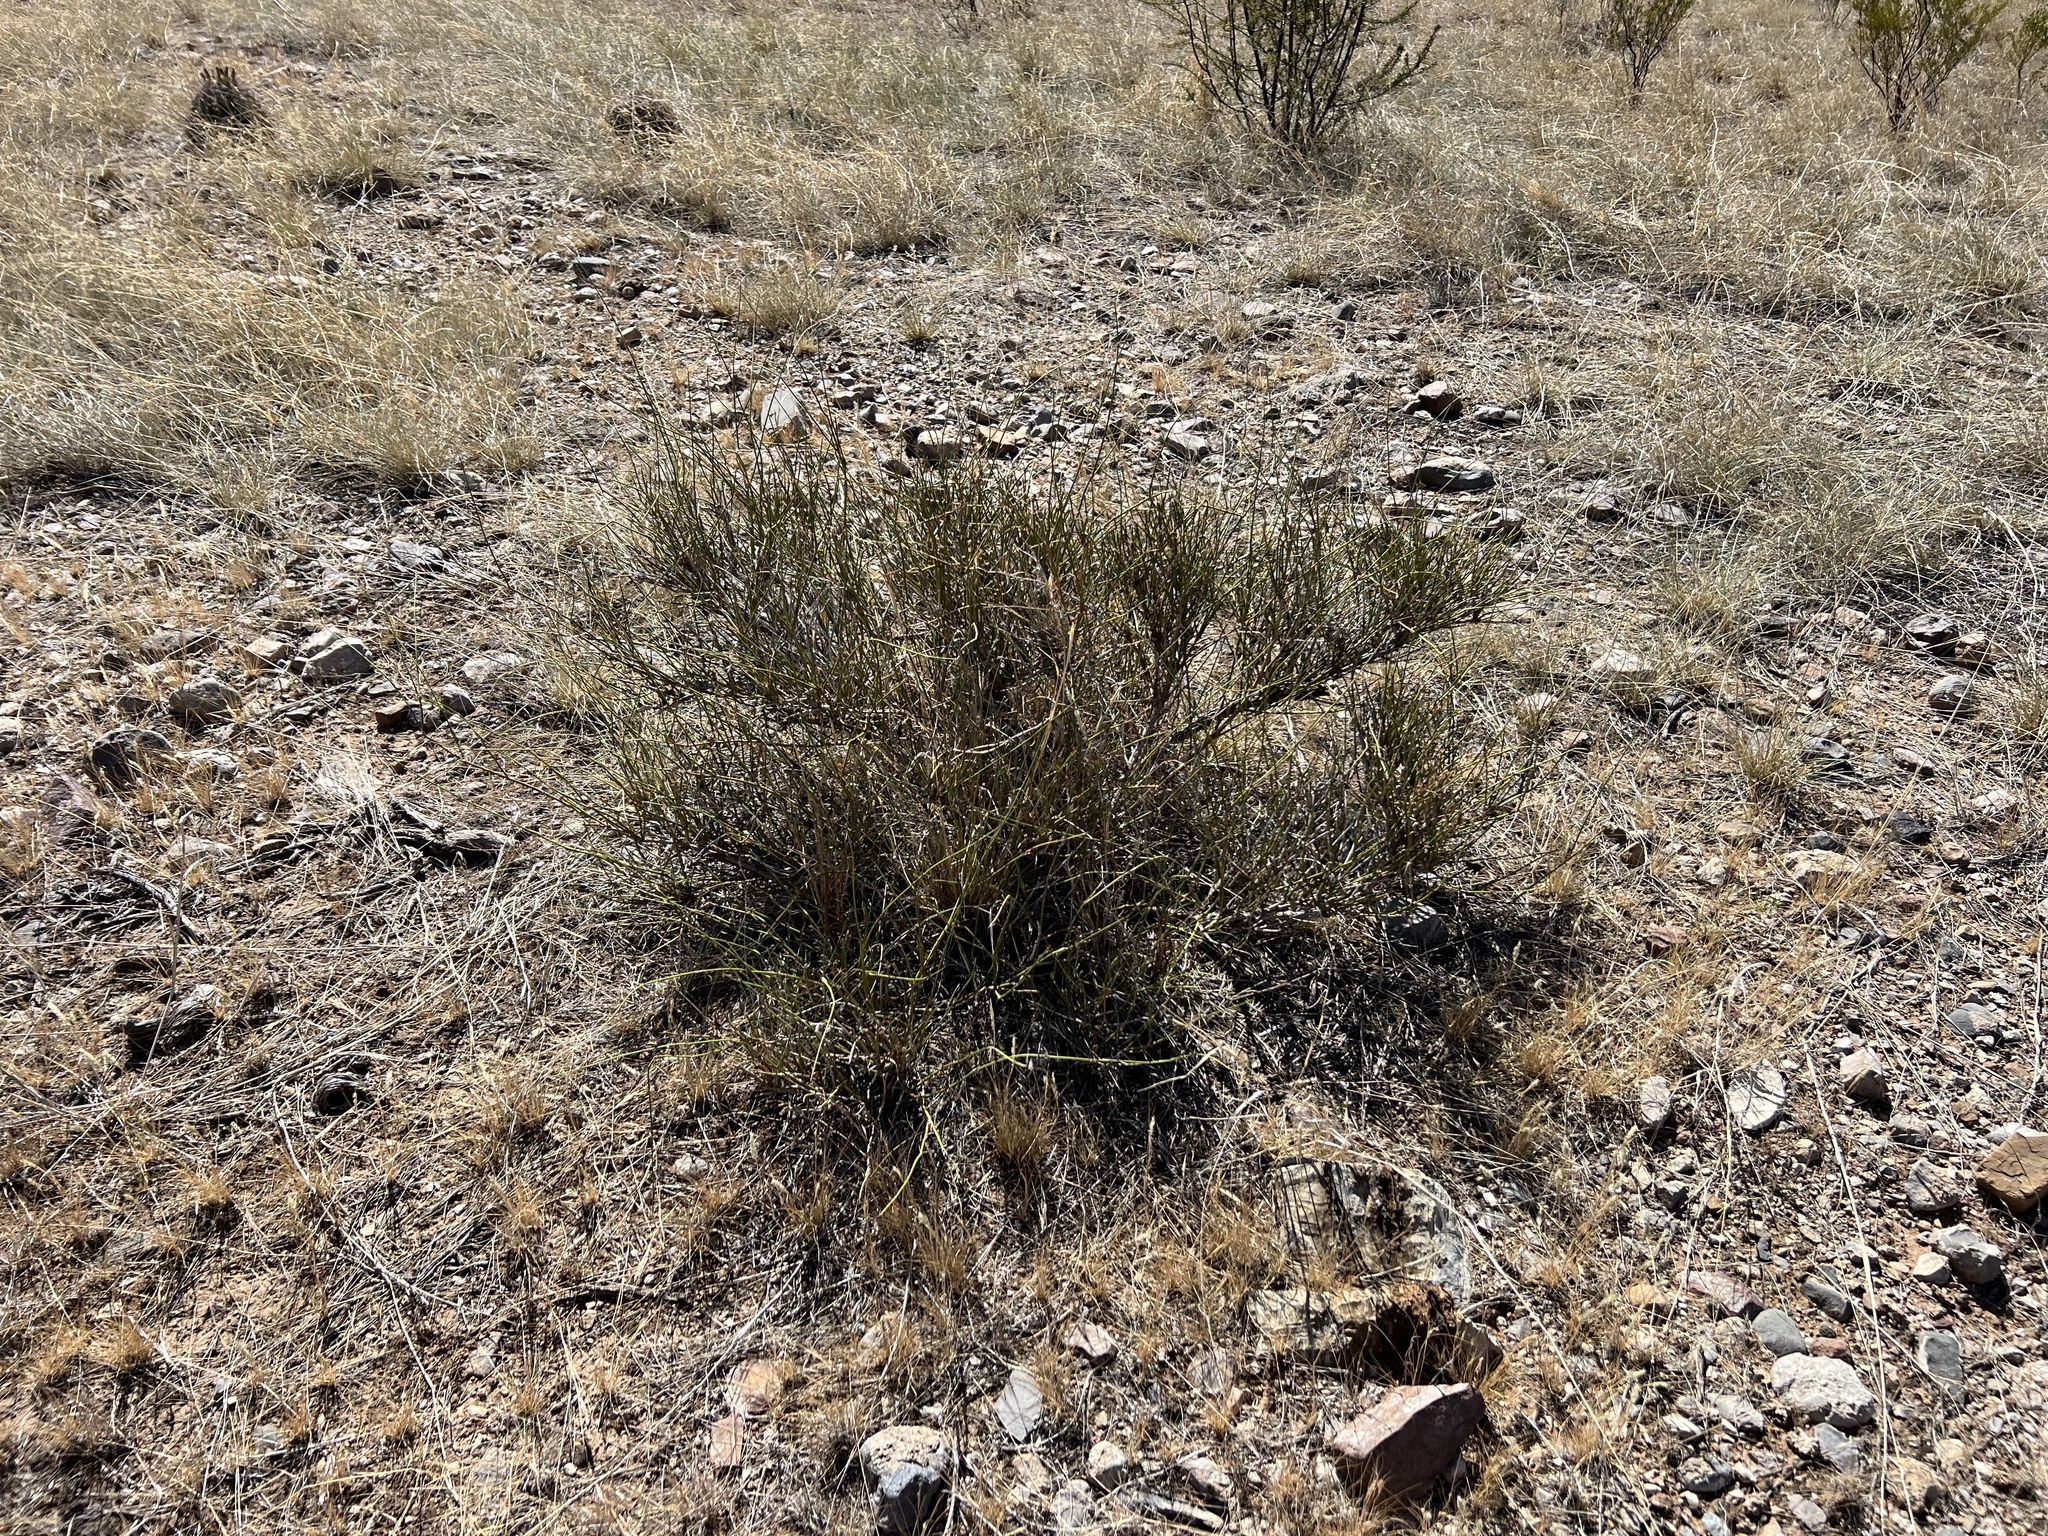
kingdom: Plantae
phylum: Tracheophyta
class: Gnetopsida
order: Ephedrales
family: Ephedraceae
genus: Ephedra
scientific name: Ephedra trifurca
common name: Mexican-tea
